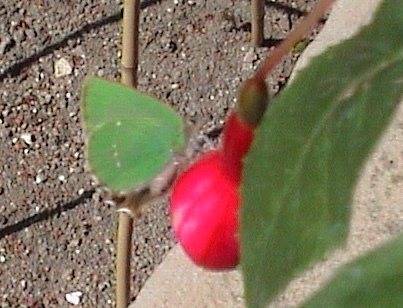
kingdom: Animalia
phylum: Arthropoda
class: Insecta
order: Lepidoptera
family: Lycaenidae
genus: Callophrys
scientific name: Callophrys rubi
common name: Green hairstreak
